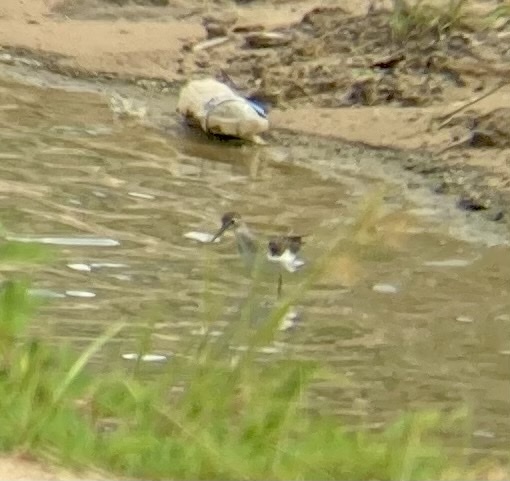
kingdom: Animalia
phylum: Chordata
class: Aves
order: Charadriiformes
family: Scolopacidae
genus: Tringa
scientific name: Tringa solitaria
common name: Solitary sandpiper
